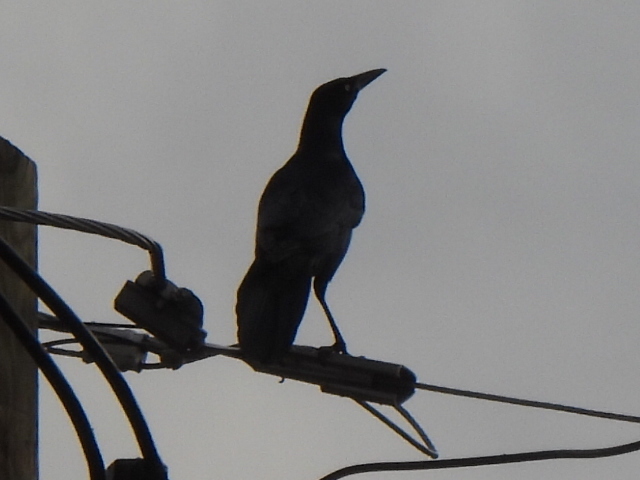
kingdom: Animalia
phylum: Chordata
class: Aves
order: Passeriformes
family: Icteridae
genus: Quiscalus
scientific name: Quiscalus mexicanus
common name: Great-tailed grackle
